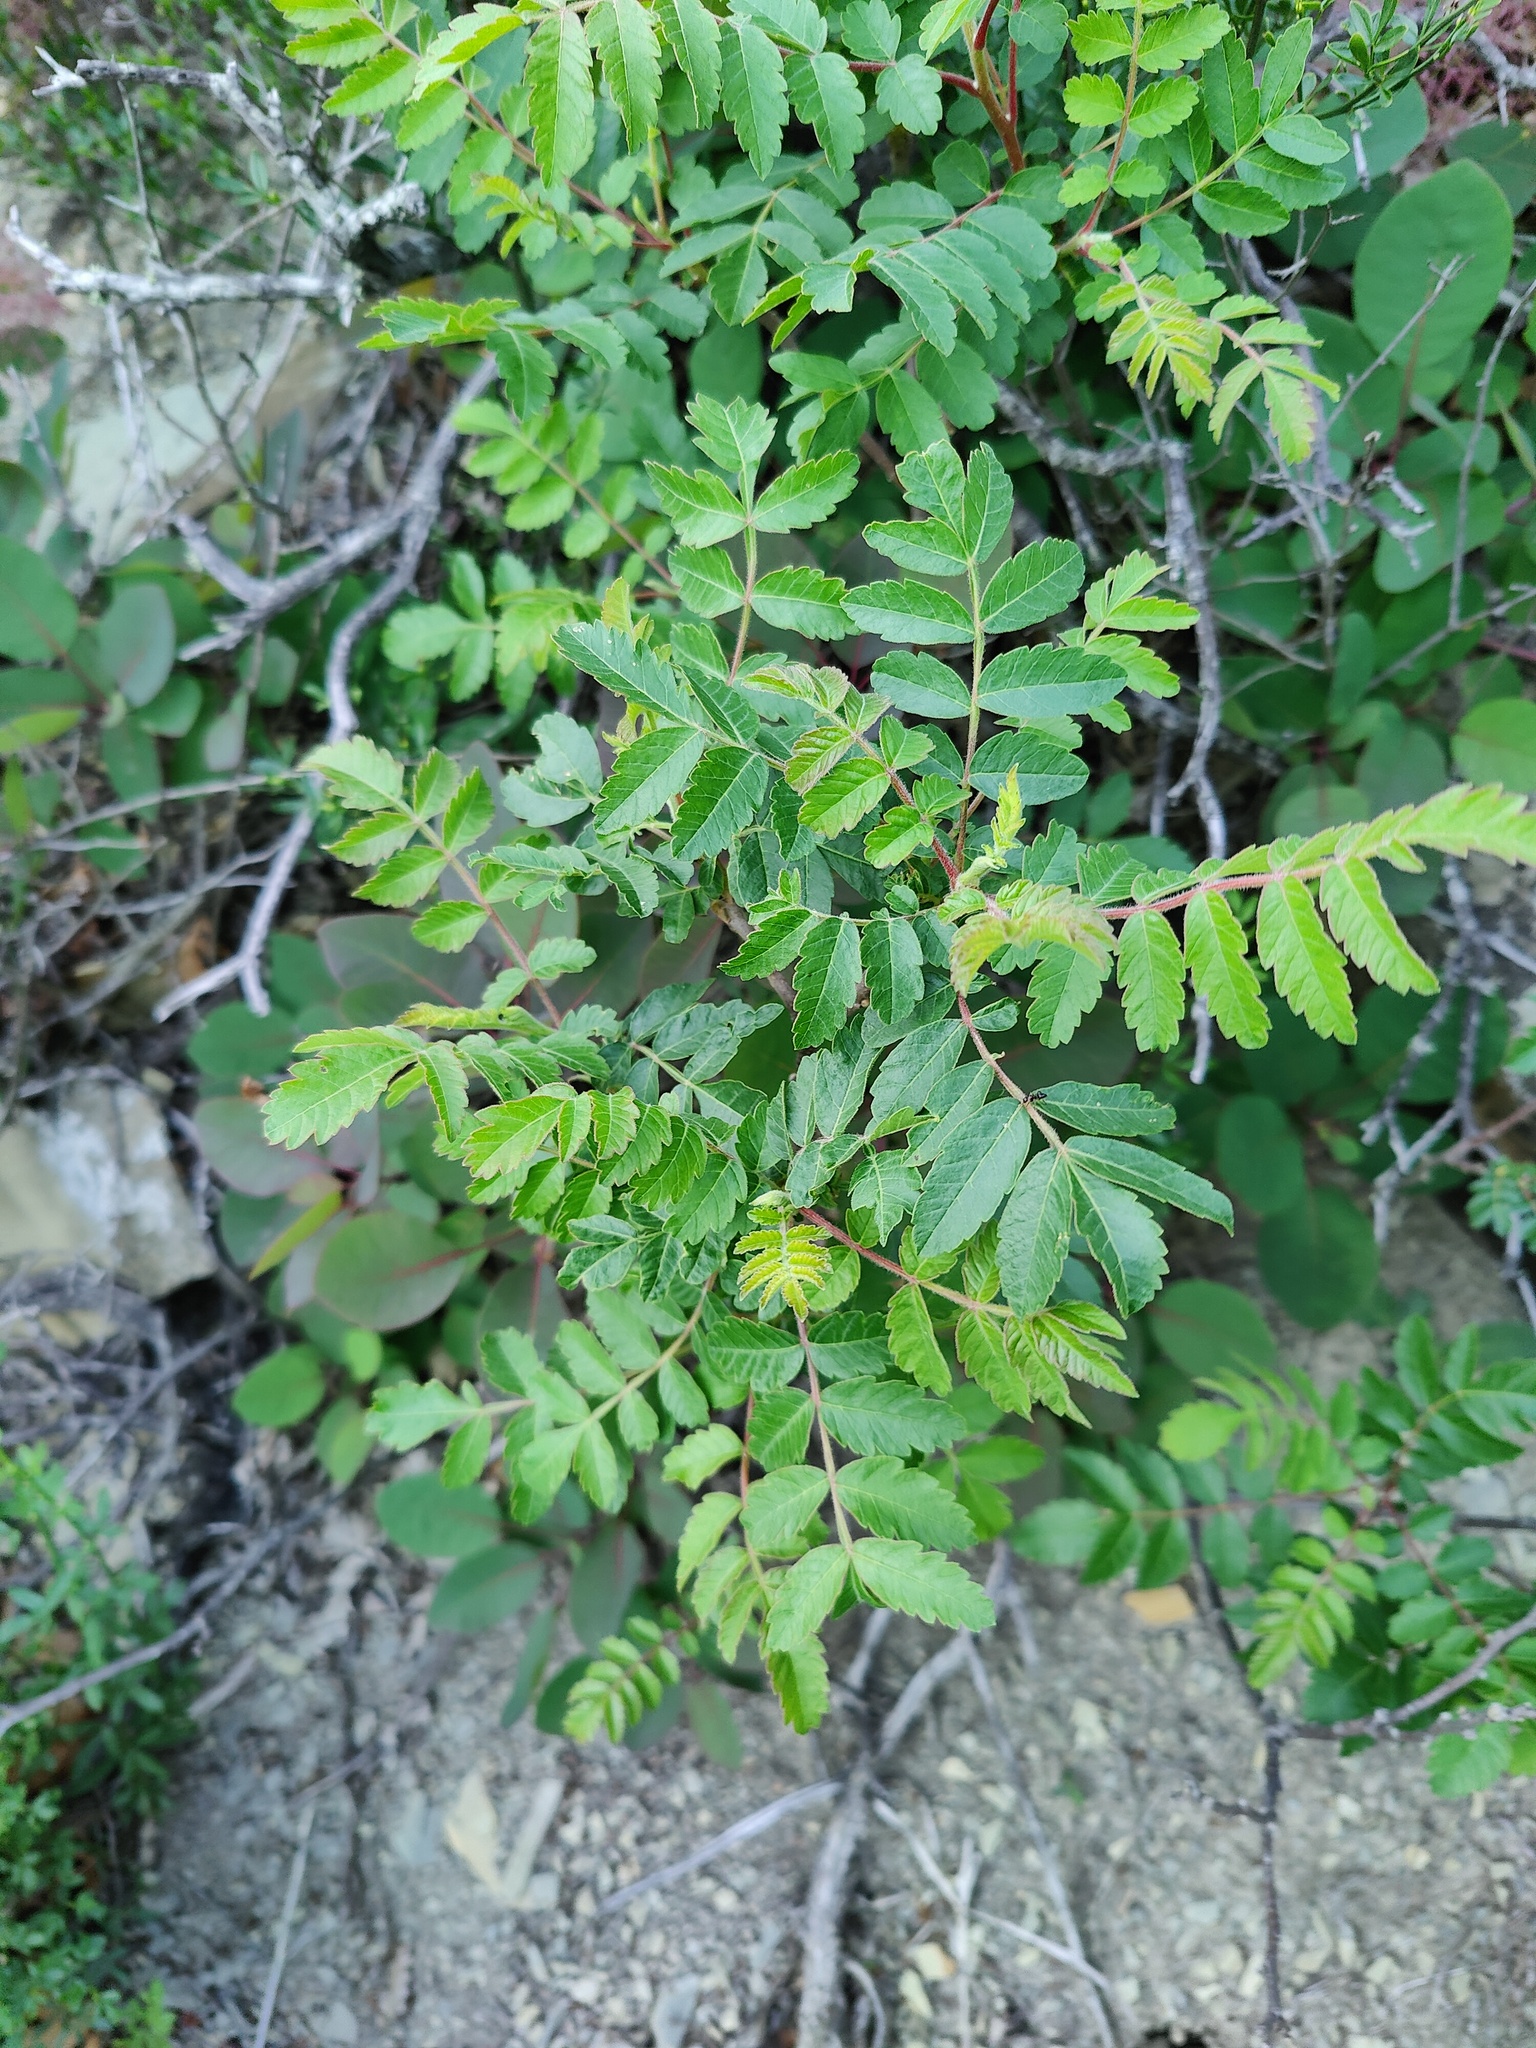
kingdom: Plantae
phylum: Tracheophyta
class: Magnoliopsida
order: Sapindales
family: Anacardiaceae
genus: Rhus
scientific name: Rhus coriaria
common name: Tanner's sumach
